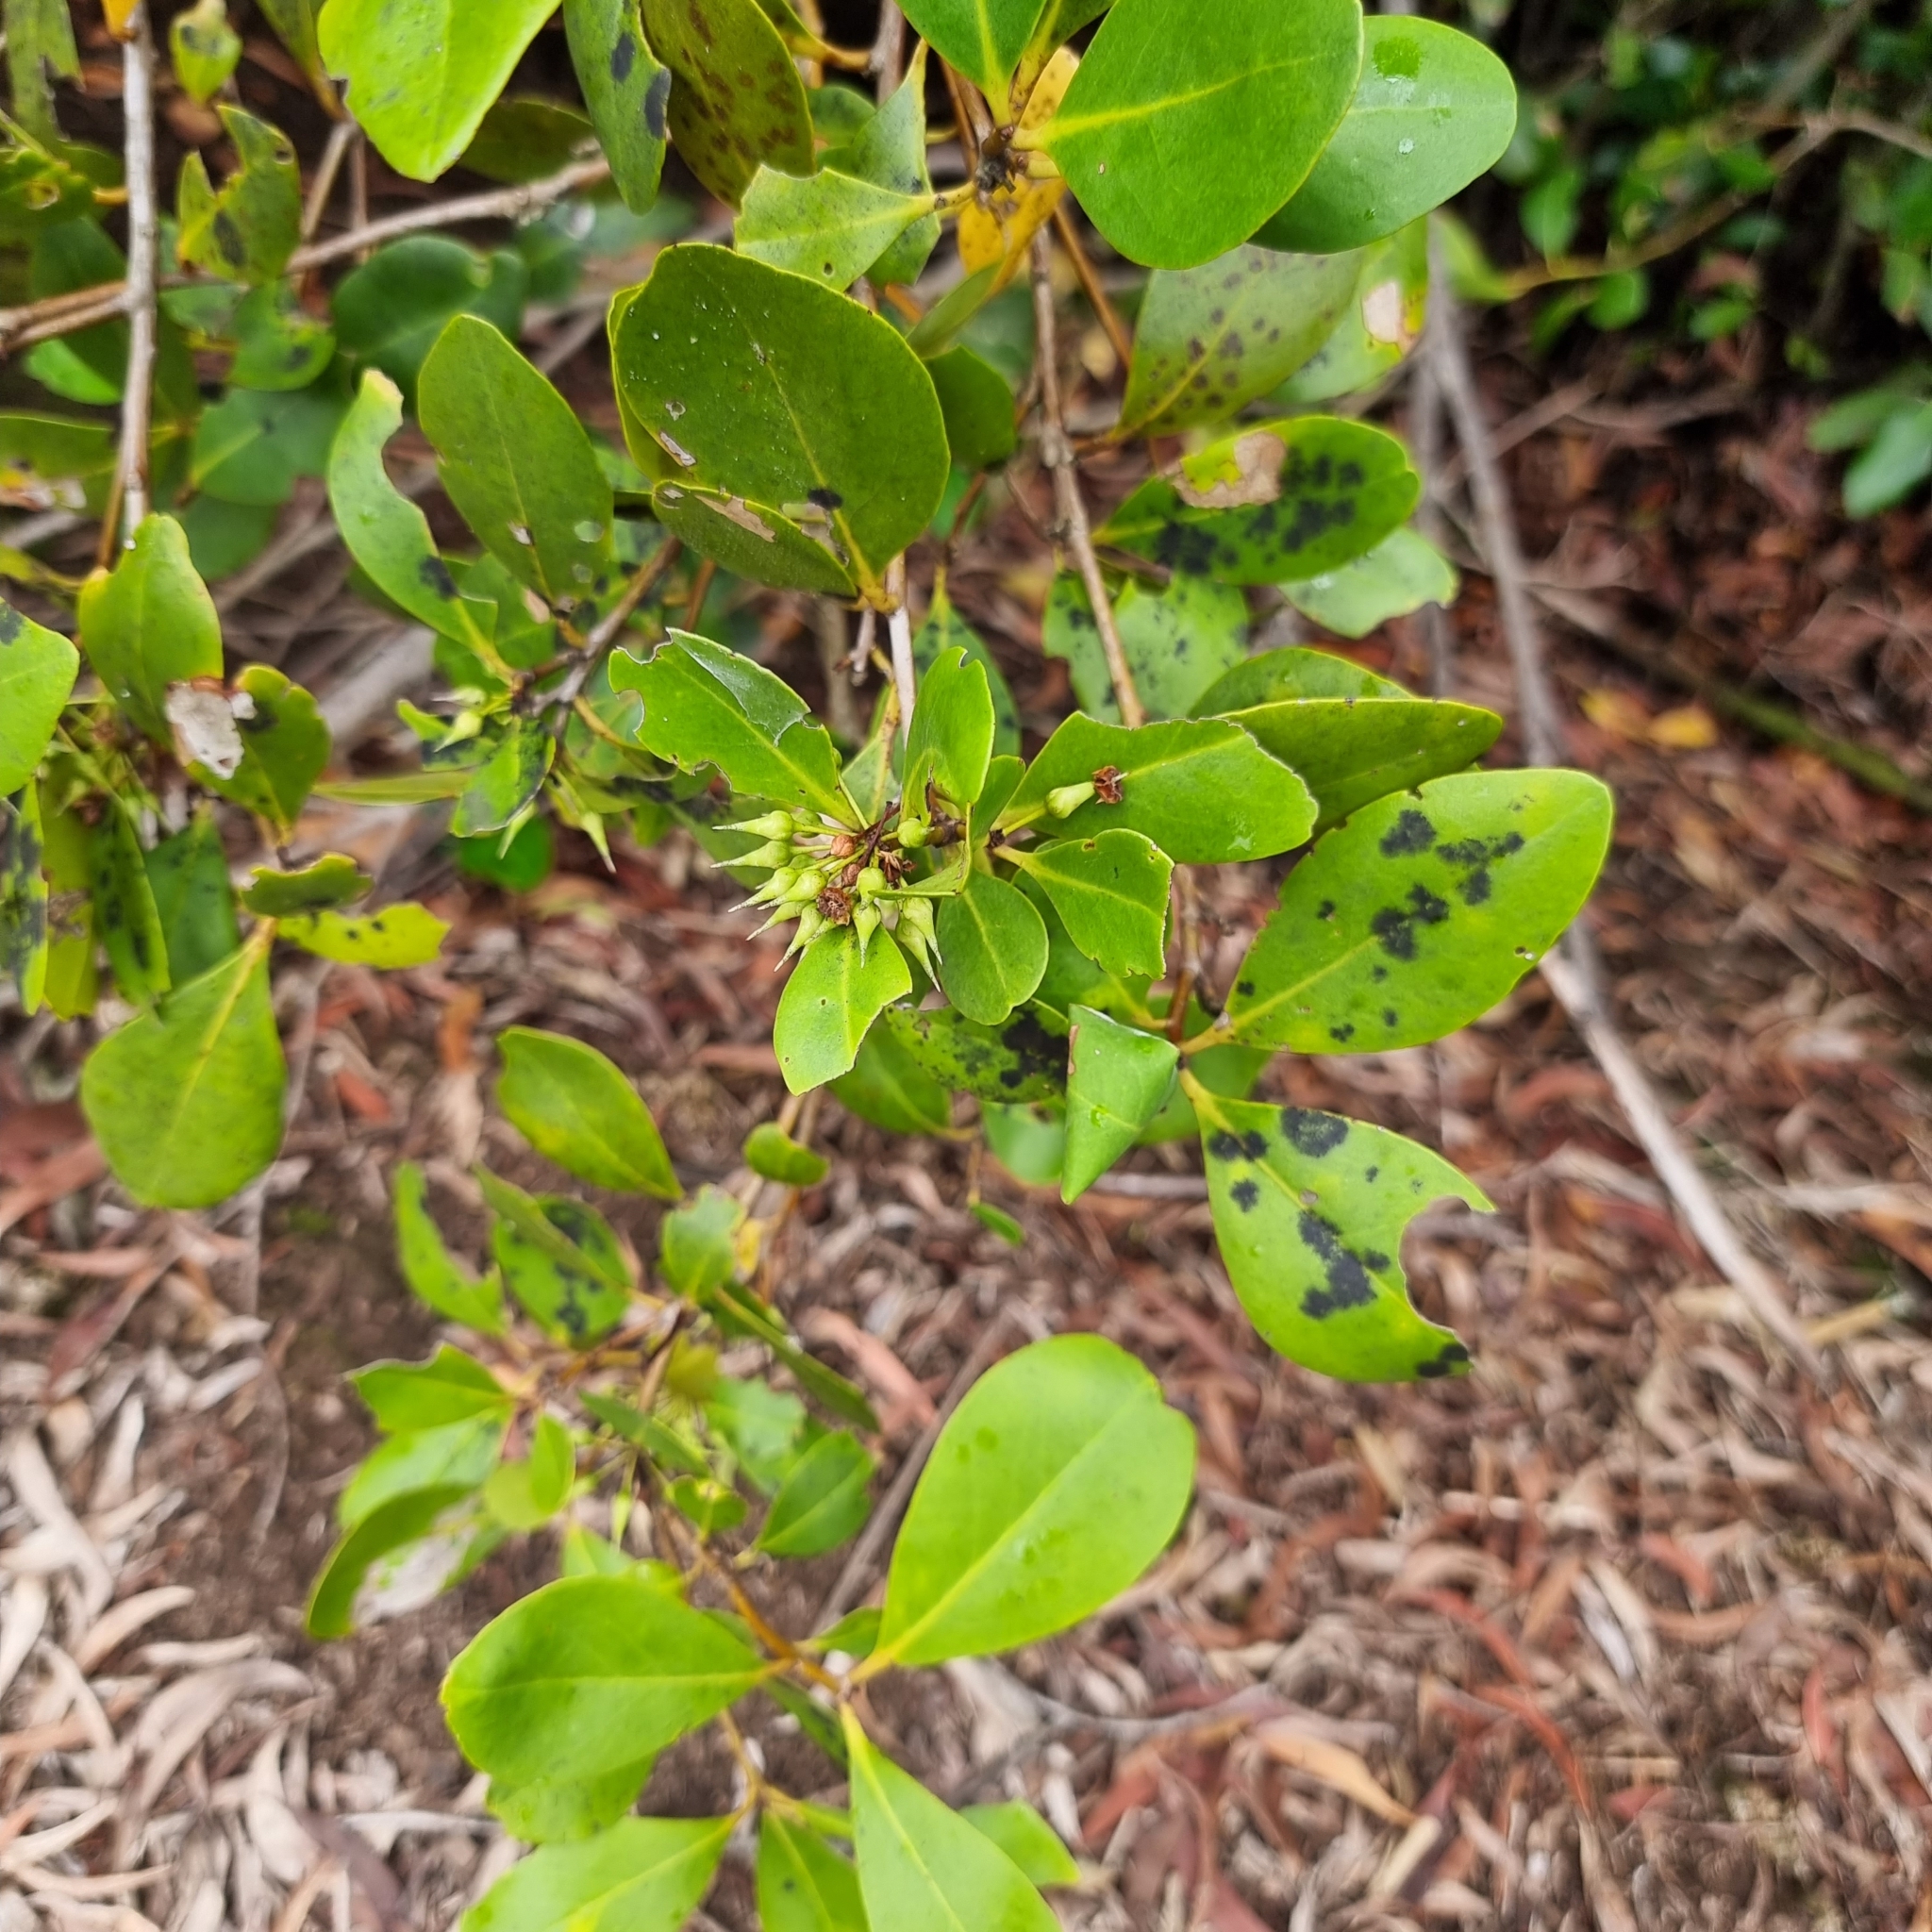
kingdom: Plantae
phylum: Tracheophyta
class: Magnoliopsida
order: Ericales
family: Primulaceae
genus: Aegiceras
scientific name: Aegiceras corniculatum
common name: River mangrove
